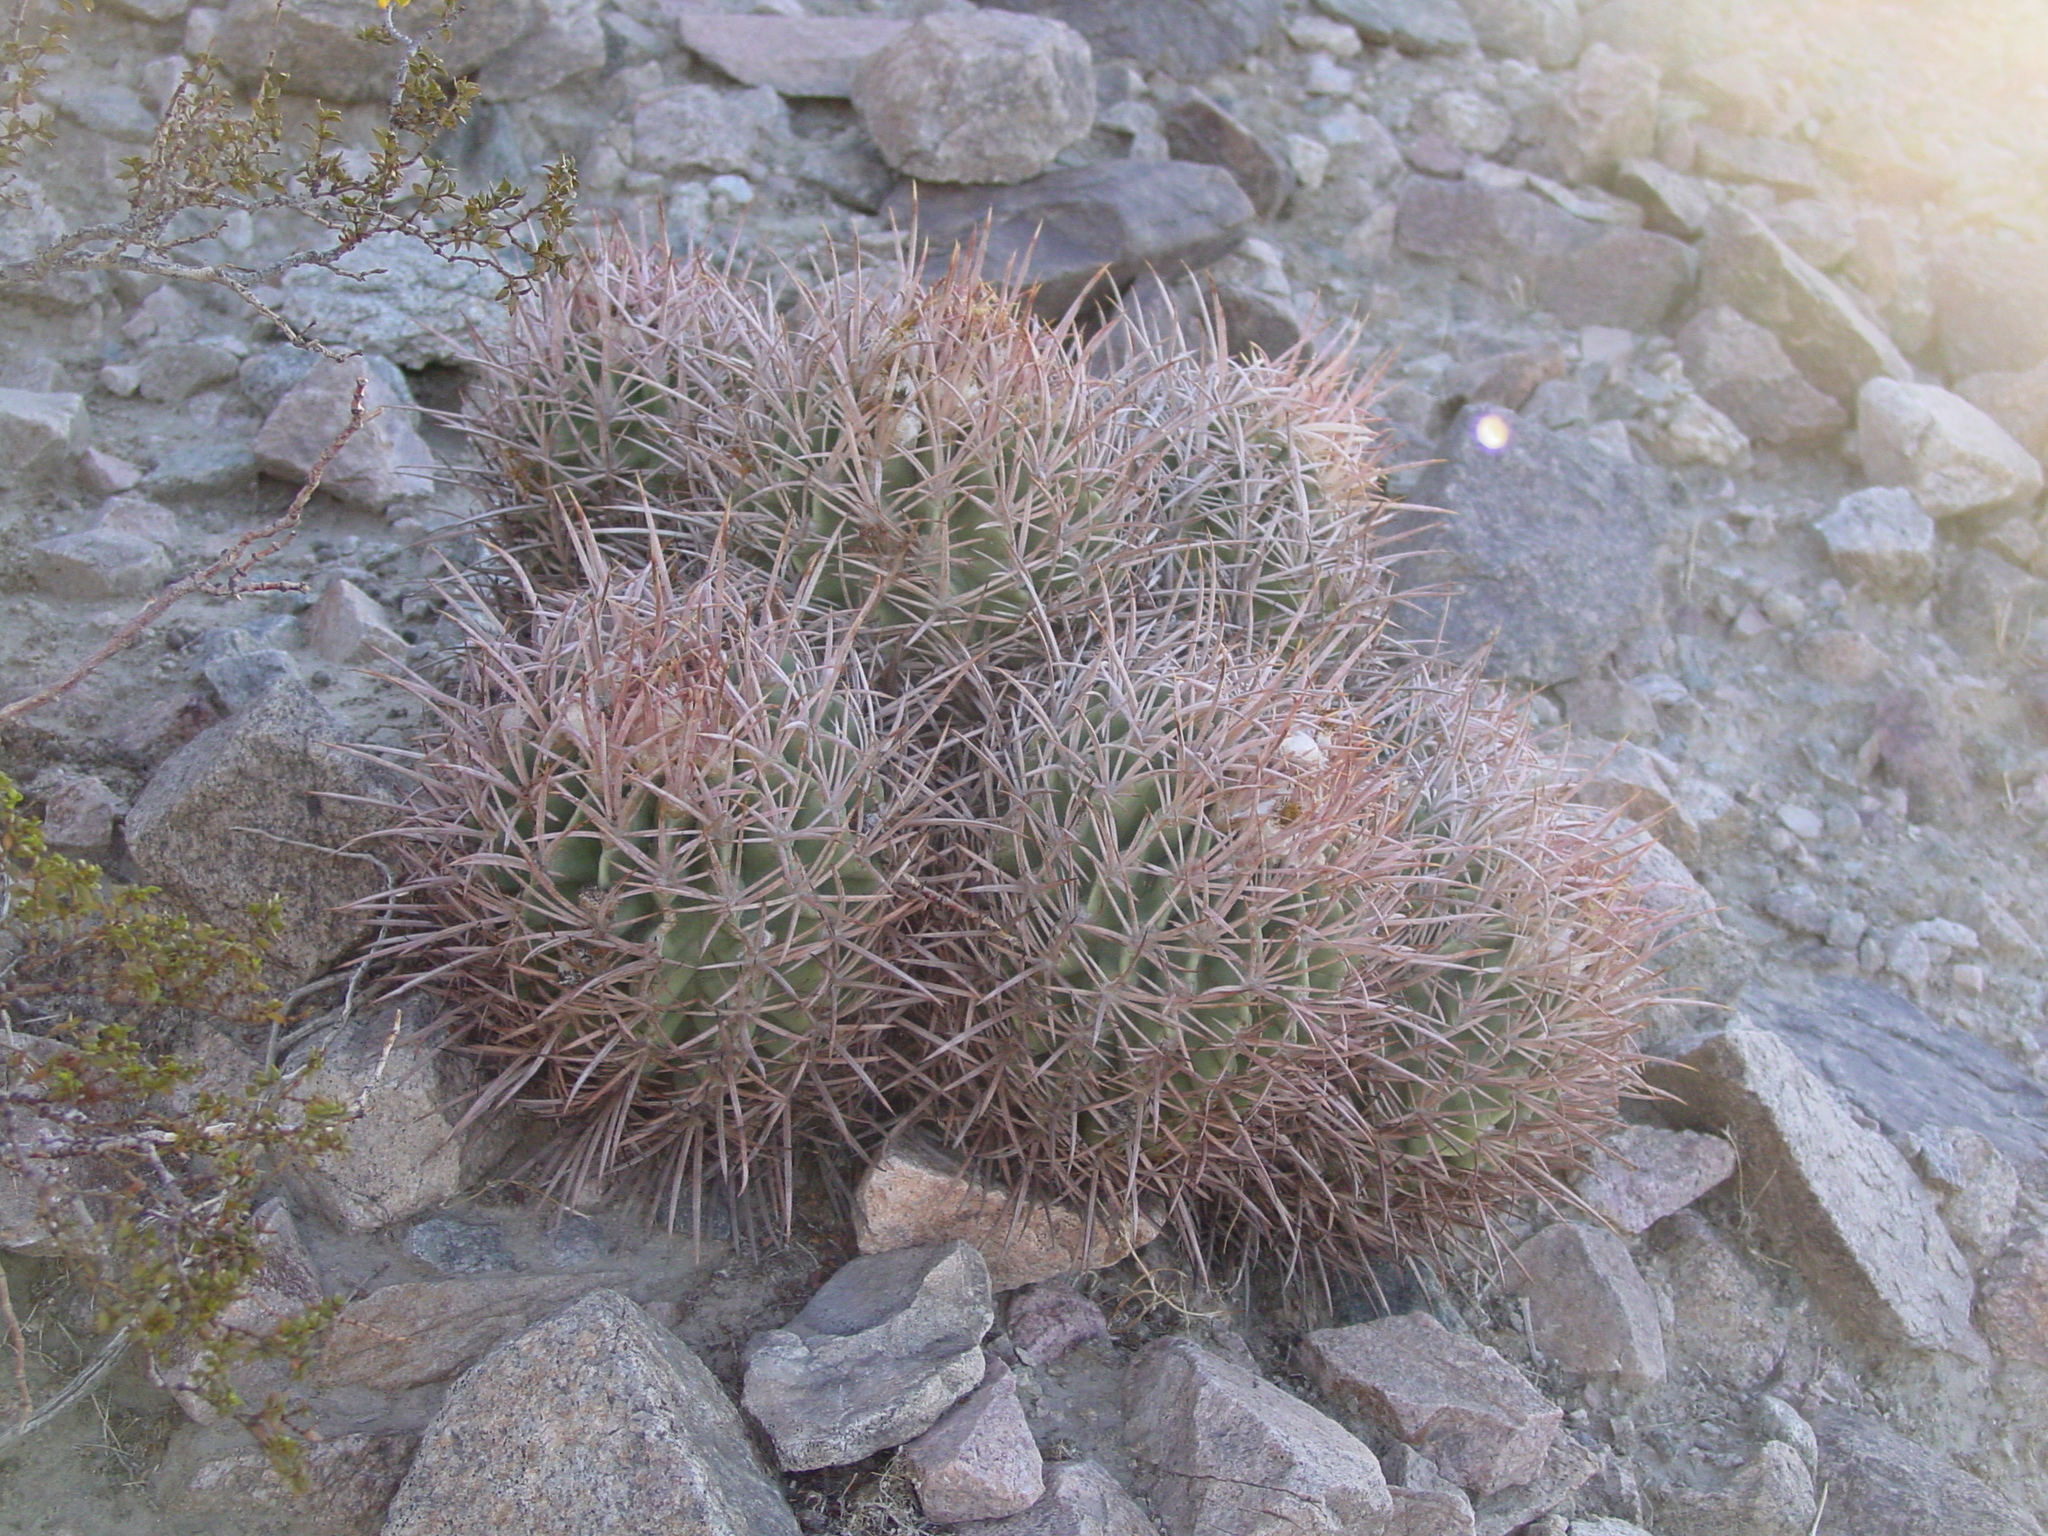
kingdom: Plantae
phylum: Tracheophyta
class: Magnoliopsida
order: Caryophyllales
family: Cactaceae
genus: Echinocactus
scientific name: Echinocactus polycephalus
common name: Cottontop cactus
